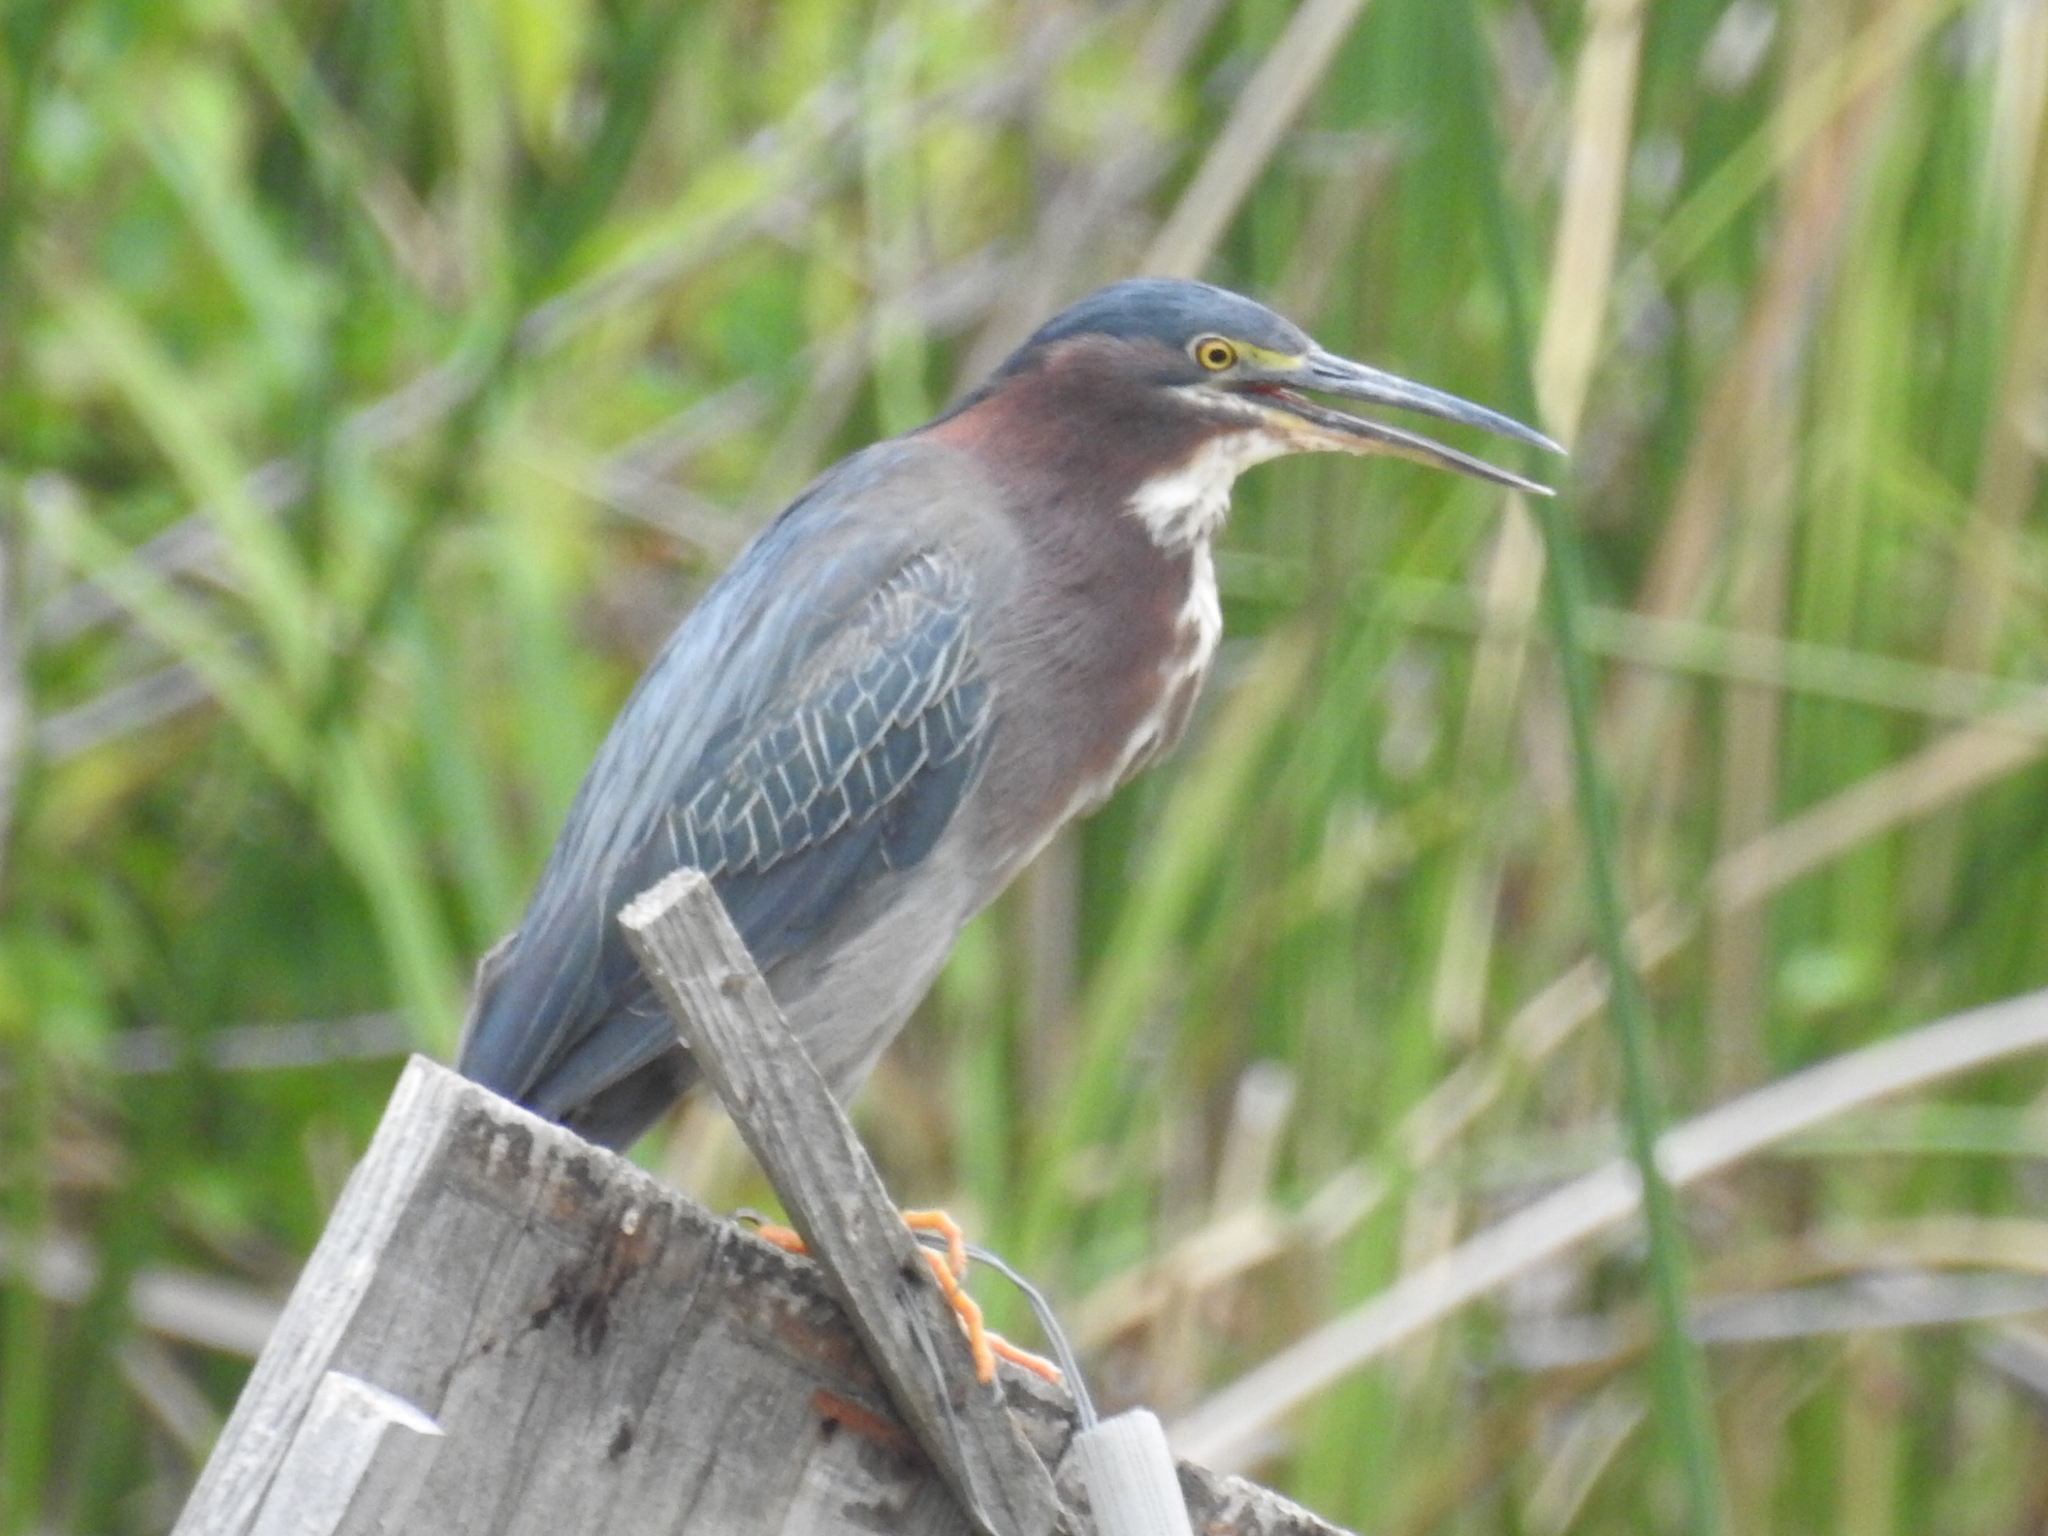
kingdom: Animalia
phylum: Chordata
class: Aves
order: Pelecaniformes
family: Ardeidae
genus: Butorides
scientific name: Butorides virescens
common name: Green heron
